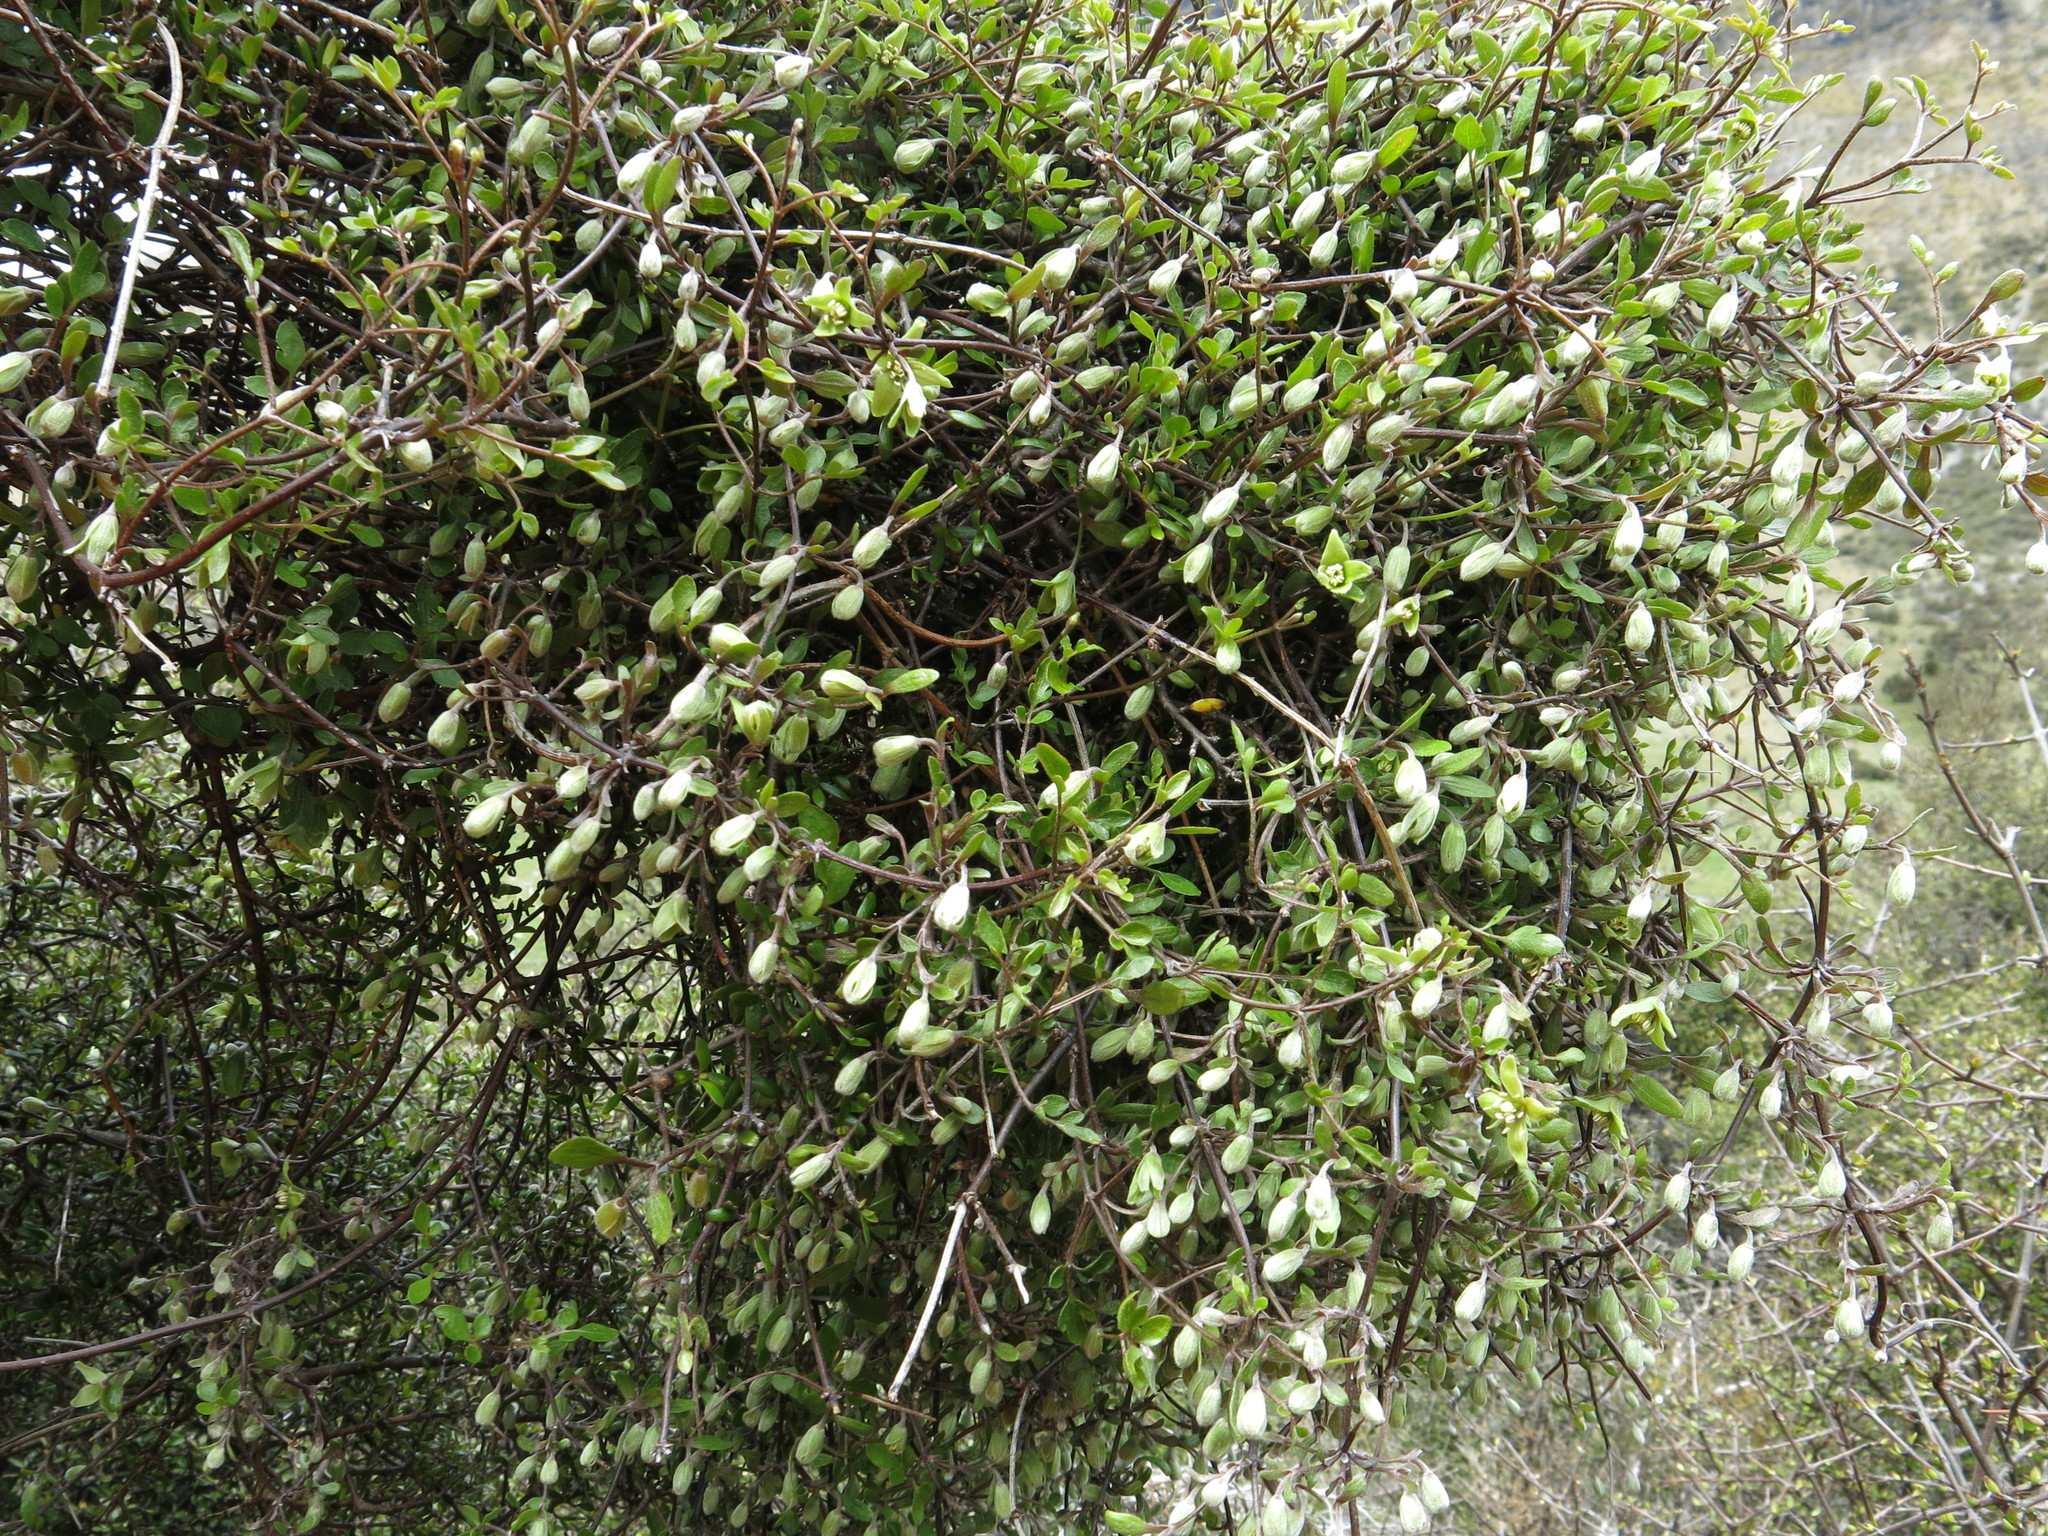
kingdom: Plantae
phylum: Tracheophyta
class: Magnoliopsida
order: Ranunculales
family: Ranunculaceae
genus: Clematis
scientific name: Clematis marata
